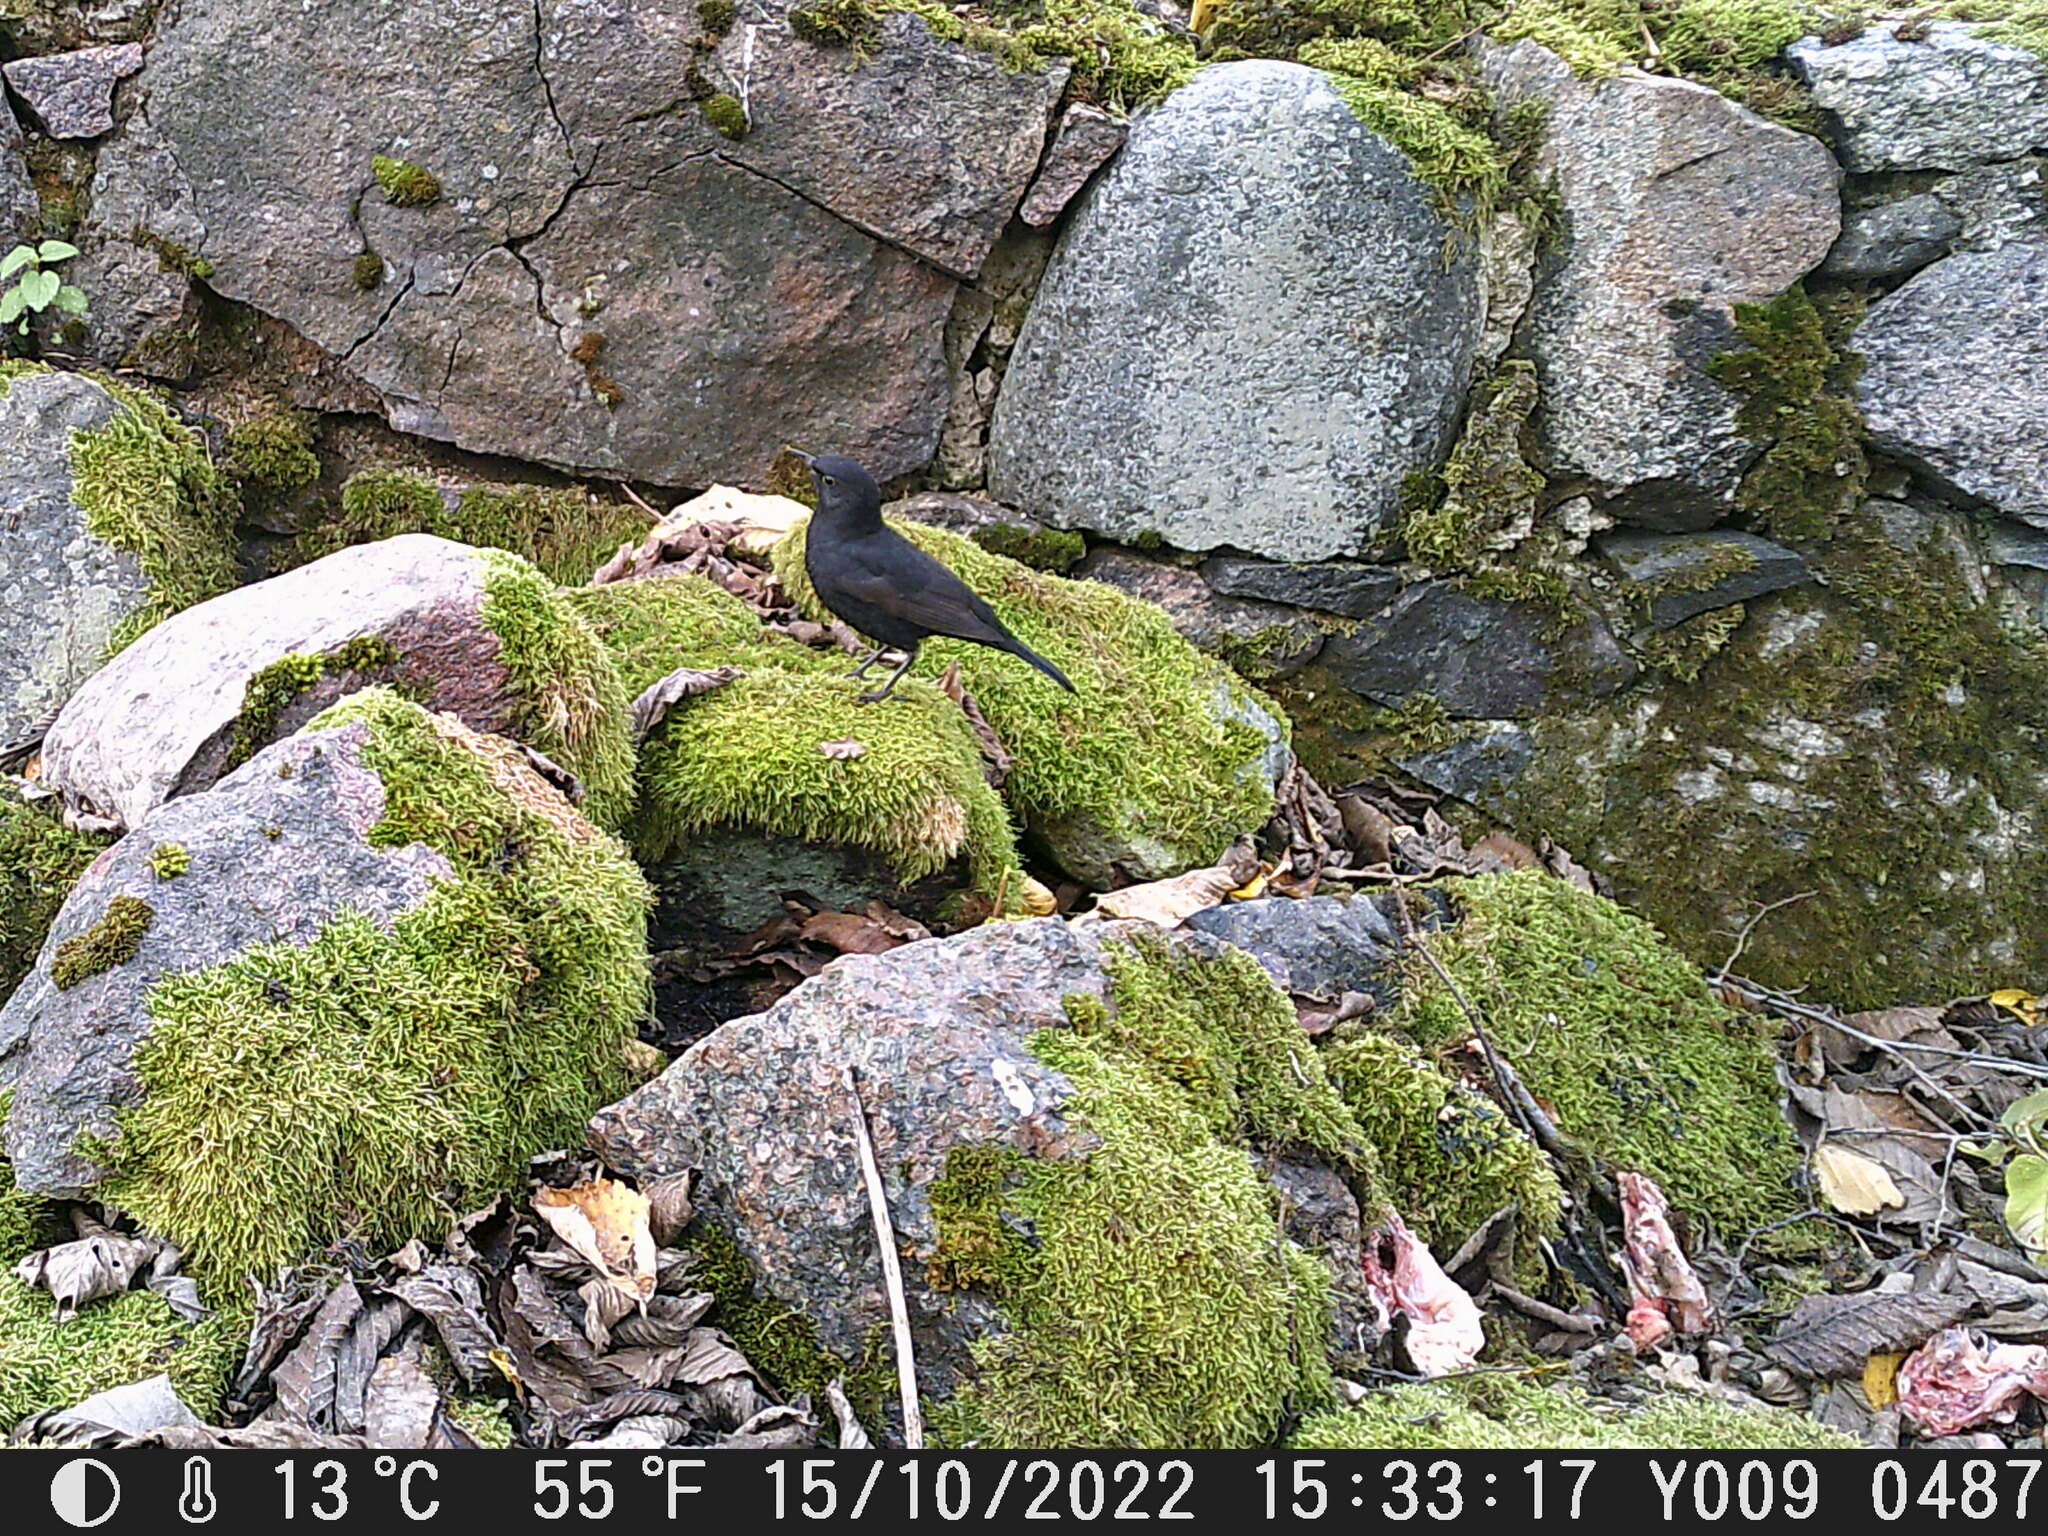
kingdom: Animalia
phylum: Chordata
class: Aves
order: Passeriformes
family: Turdidae
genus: Turdus
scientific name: Turdus merula
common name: Common blackbird
